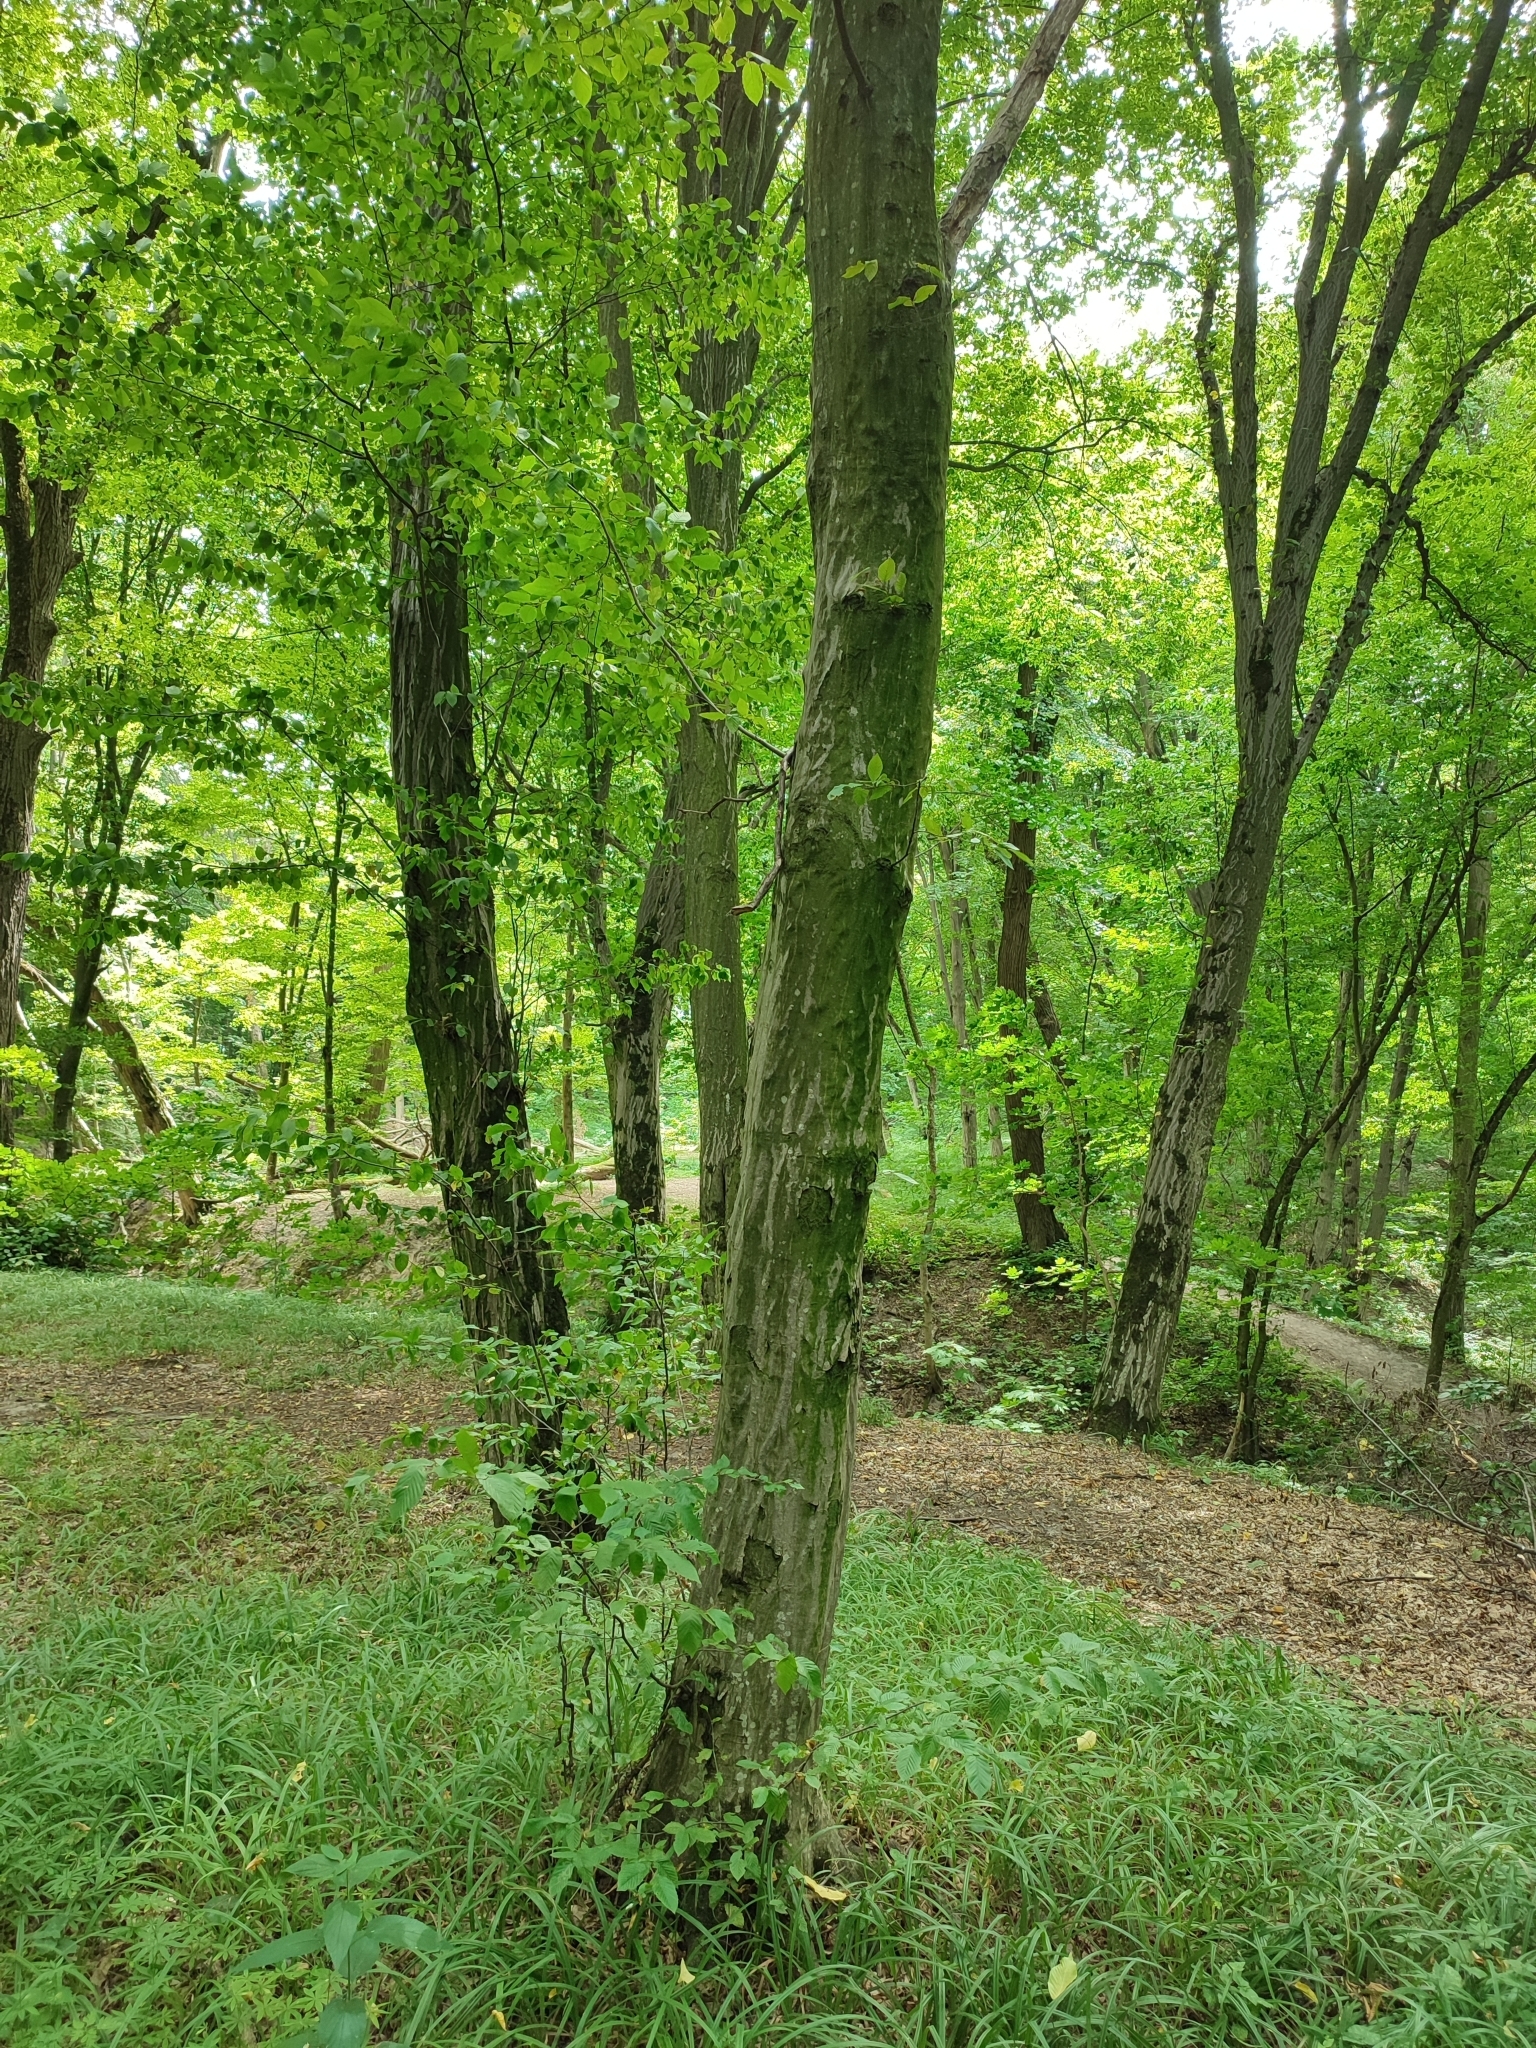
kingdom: Plantae
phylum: Tracheophyta
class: Magnoliopsida
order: Fagales
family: Betulaceae
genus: Carpinus
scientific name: Carpinus betulus
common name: Hornbeam
